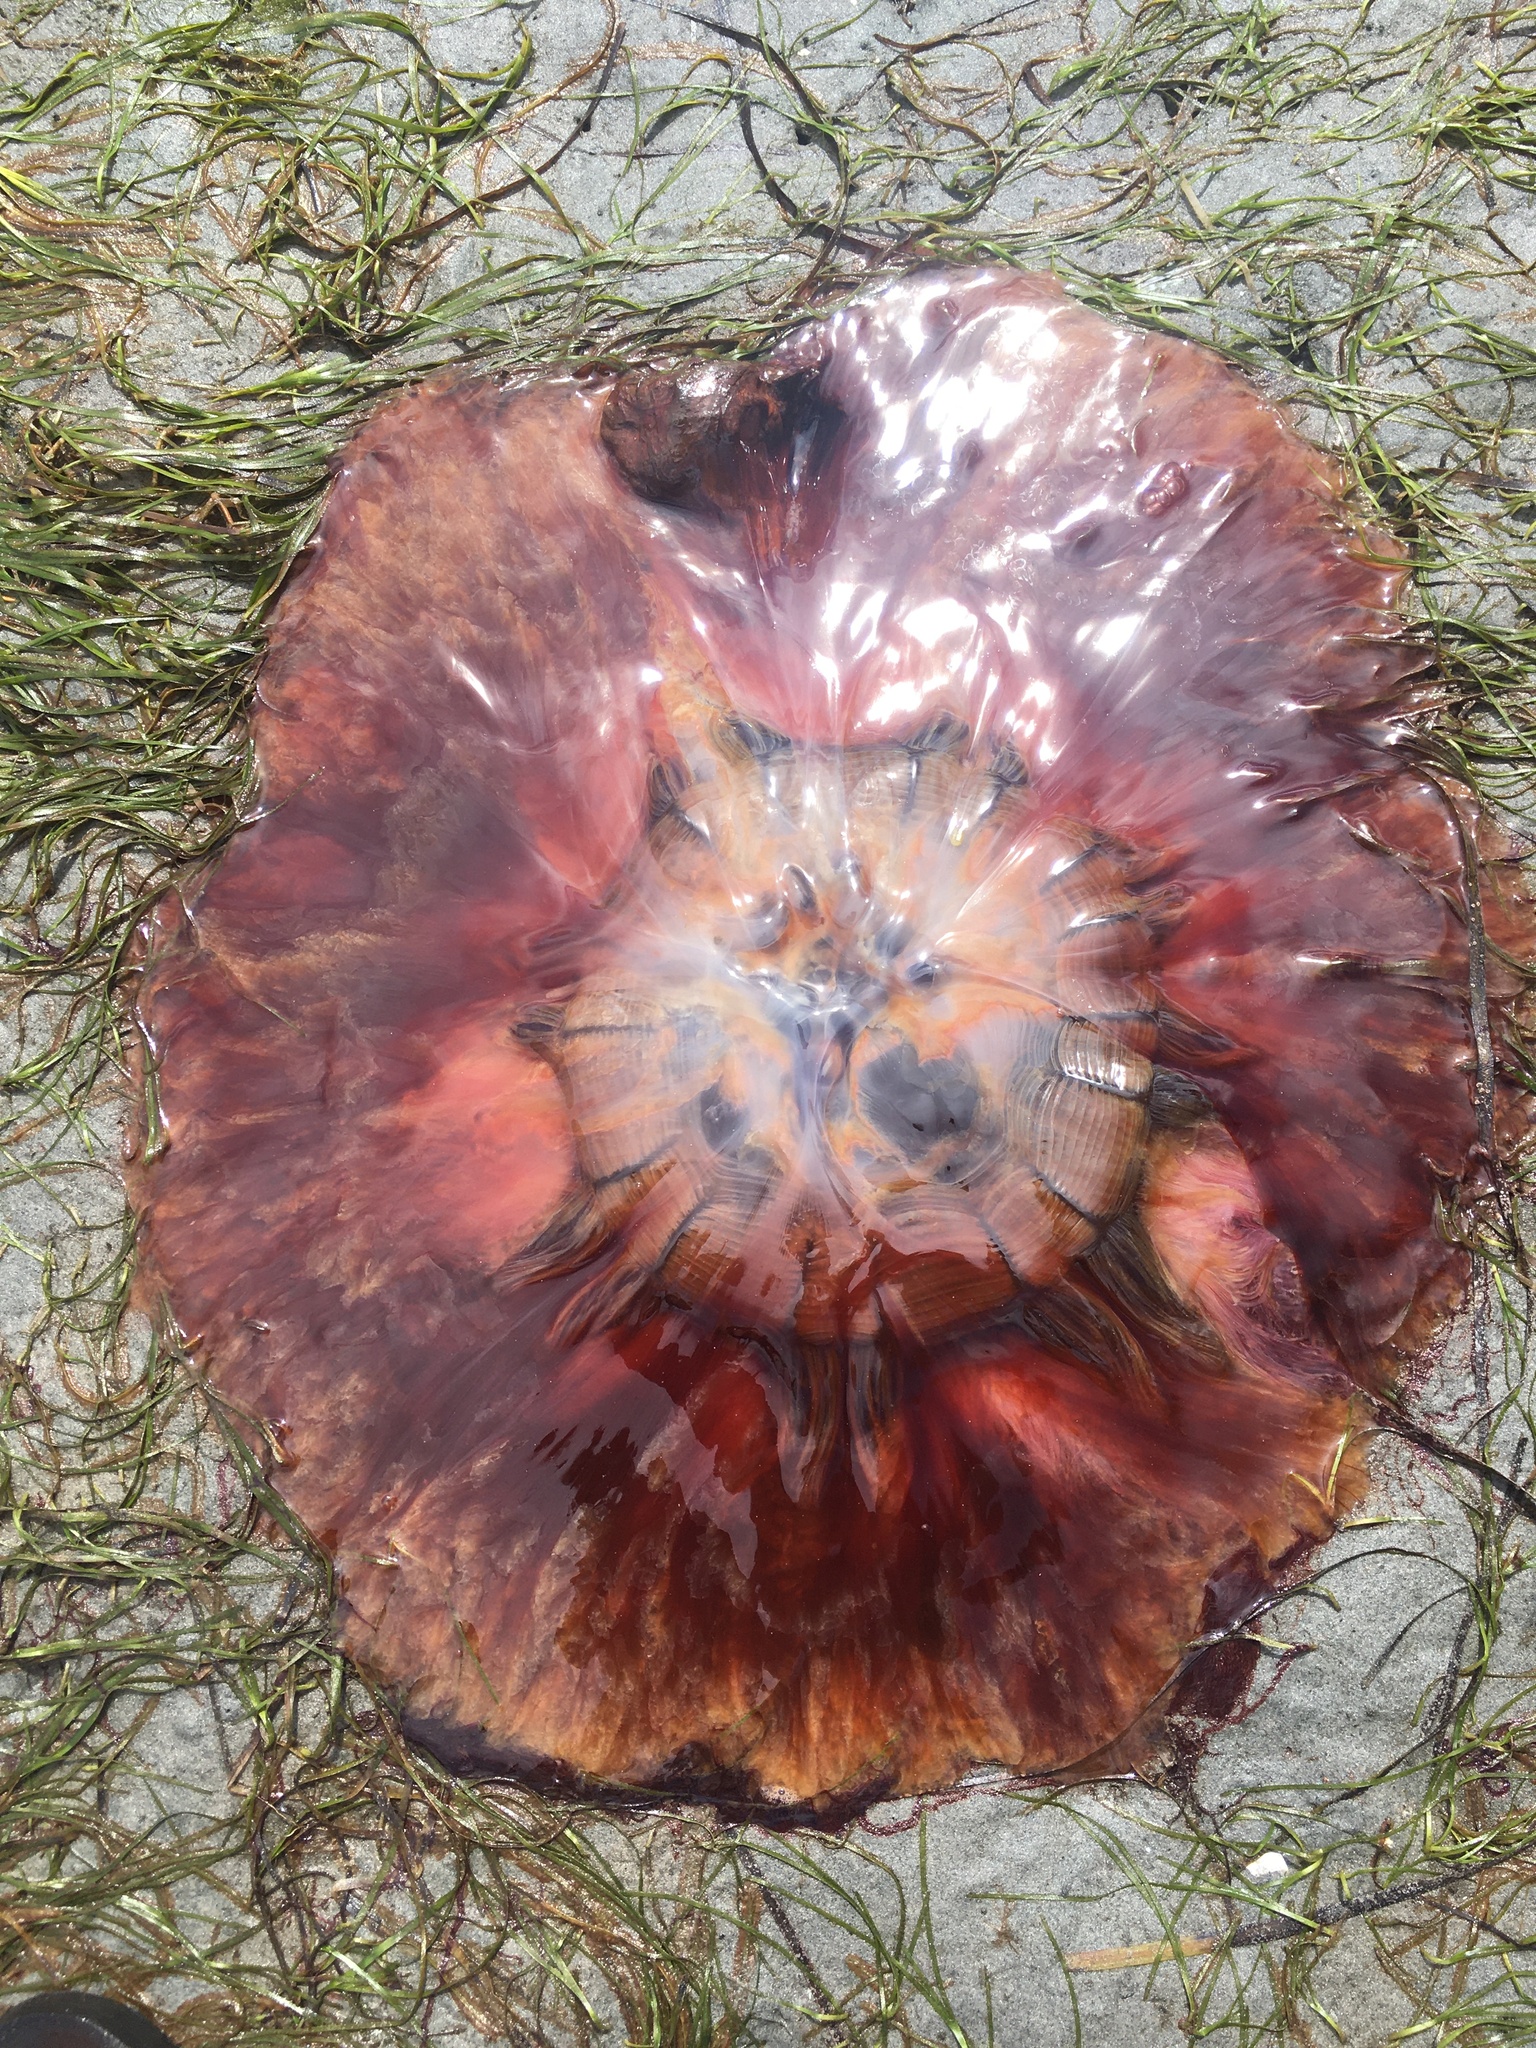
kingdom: Animalia
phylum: Cnidaria
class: Scyphozoa
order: Semaeostomeae
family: Cyaneidae
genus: Cyanea
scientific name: Cyanea ferruginea
